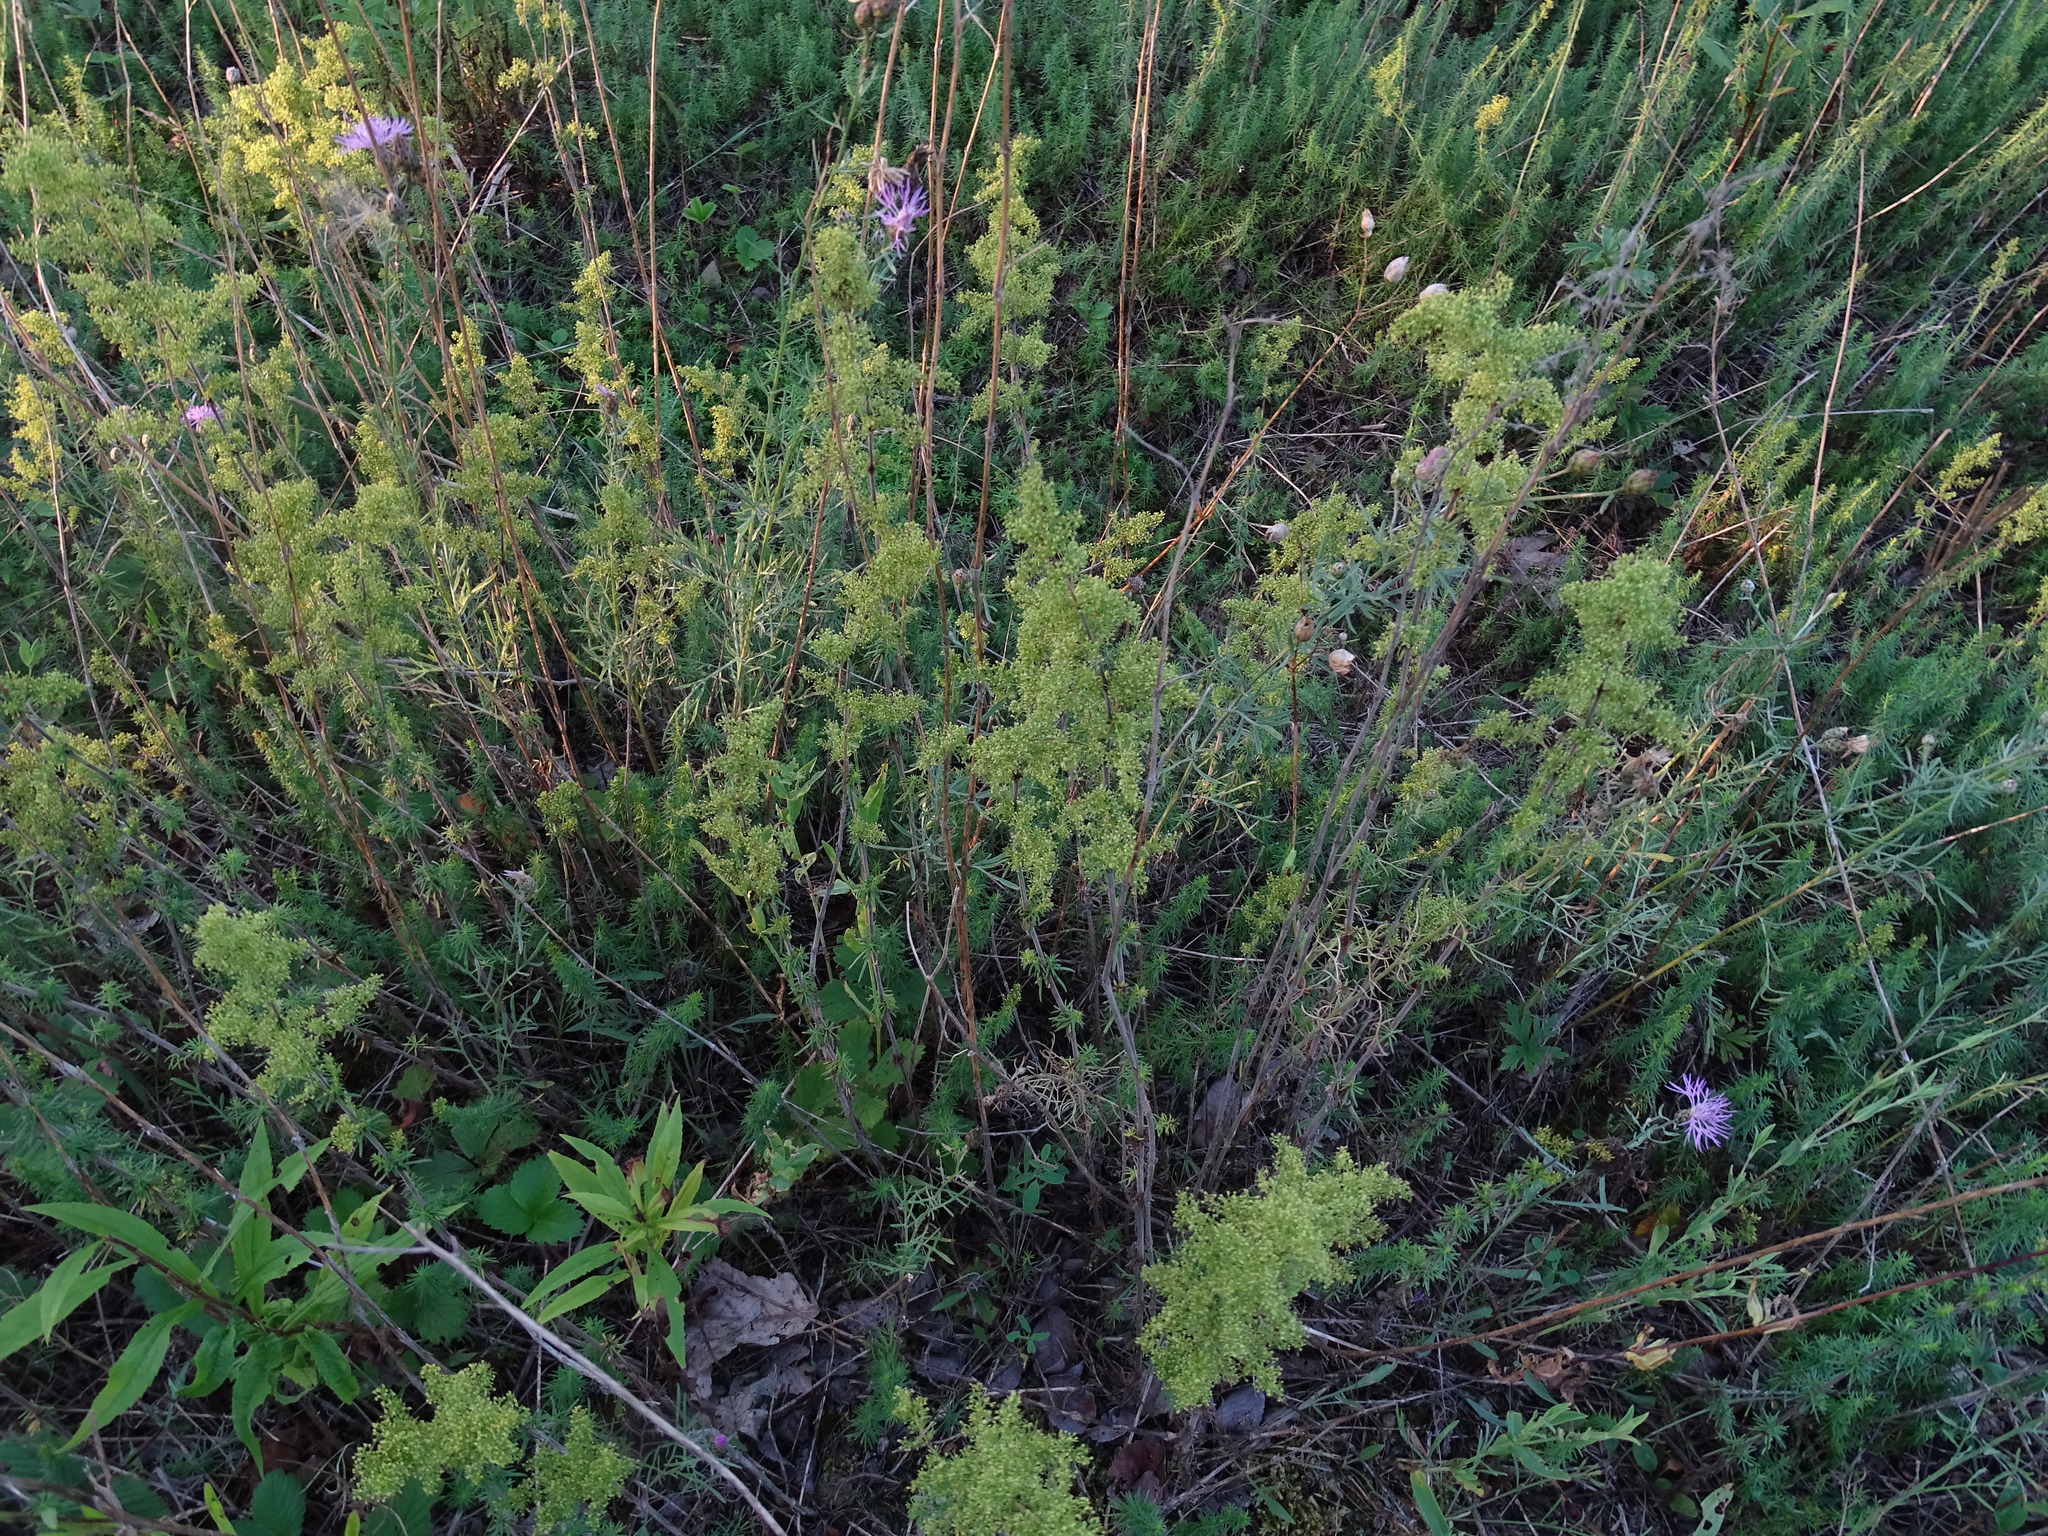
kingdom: Plantae
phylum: Tracheophyta
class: Magnoliopsida
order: Gentianales
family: Rubiaceae
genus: Galium
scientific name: Galium verum
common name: Lady's bedstraw
